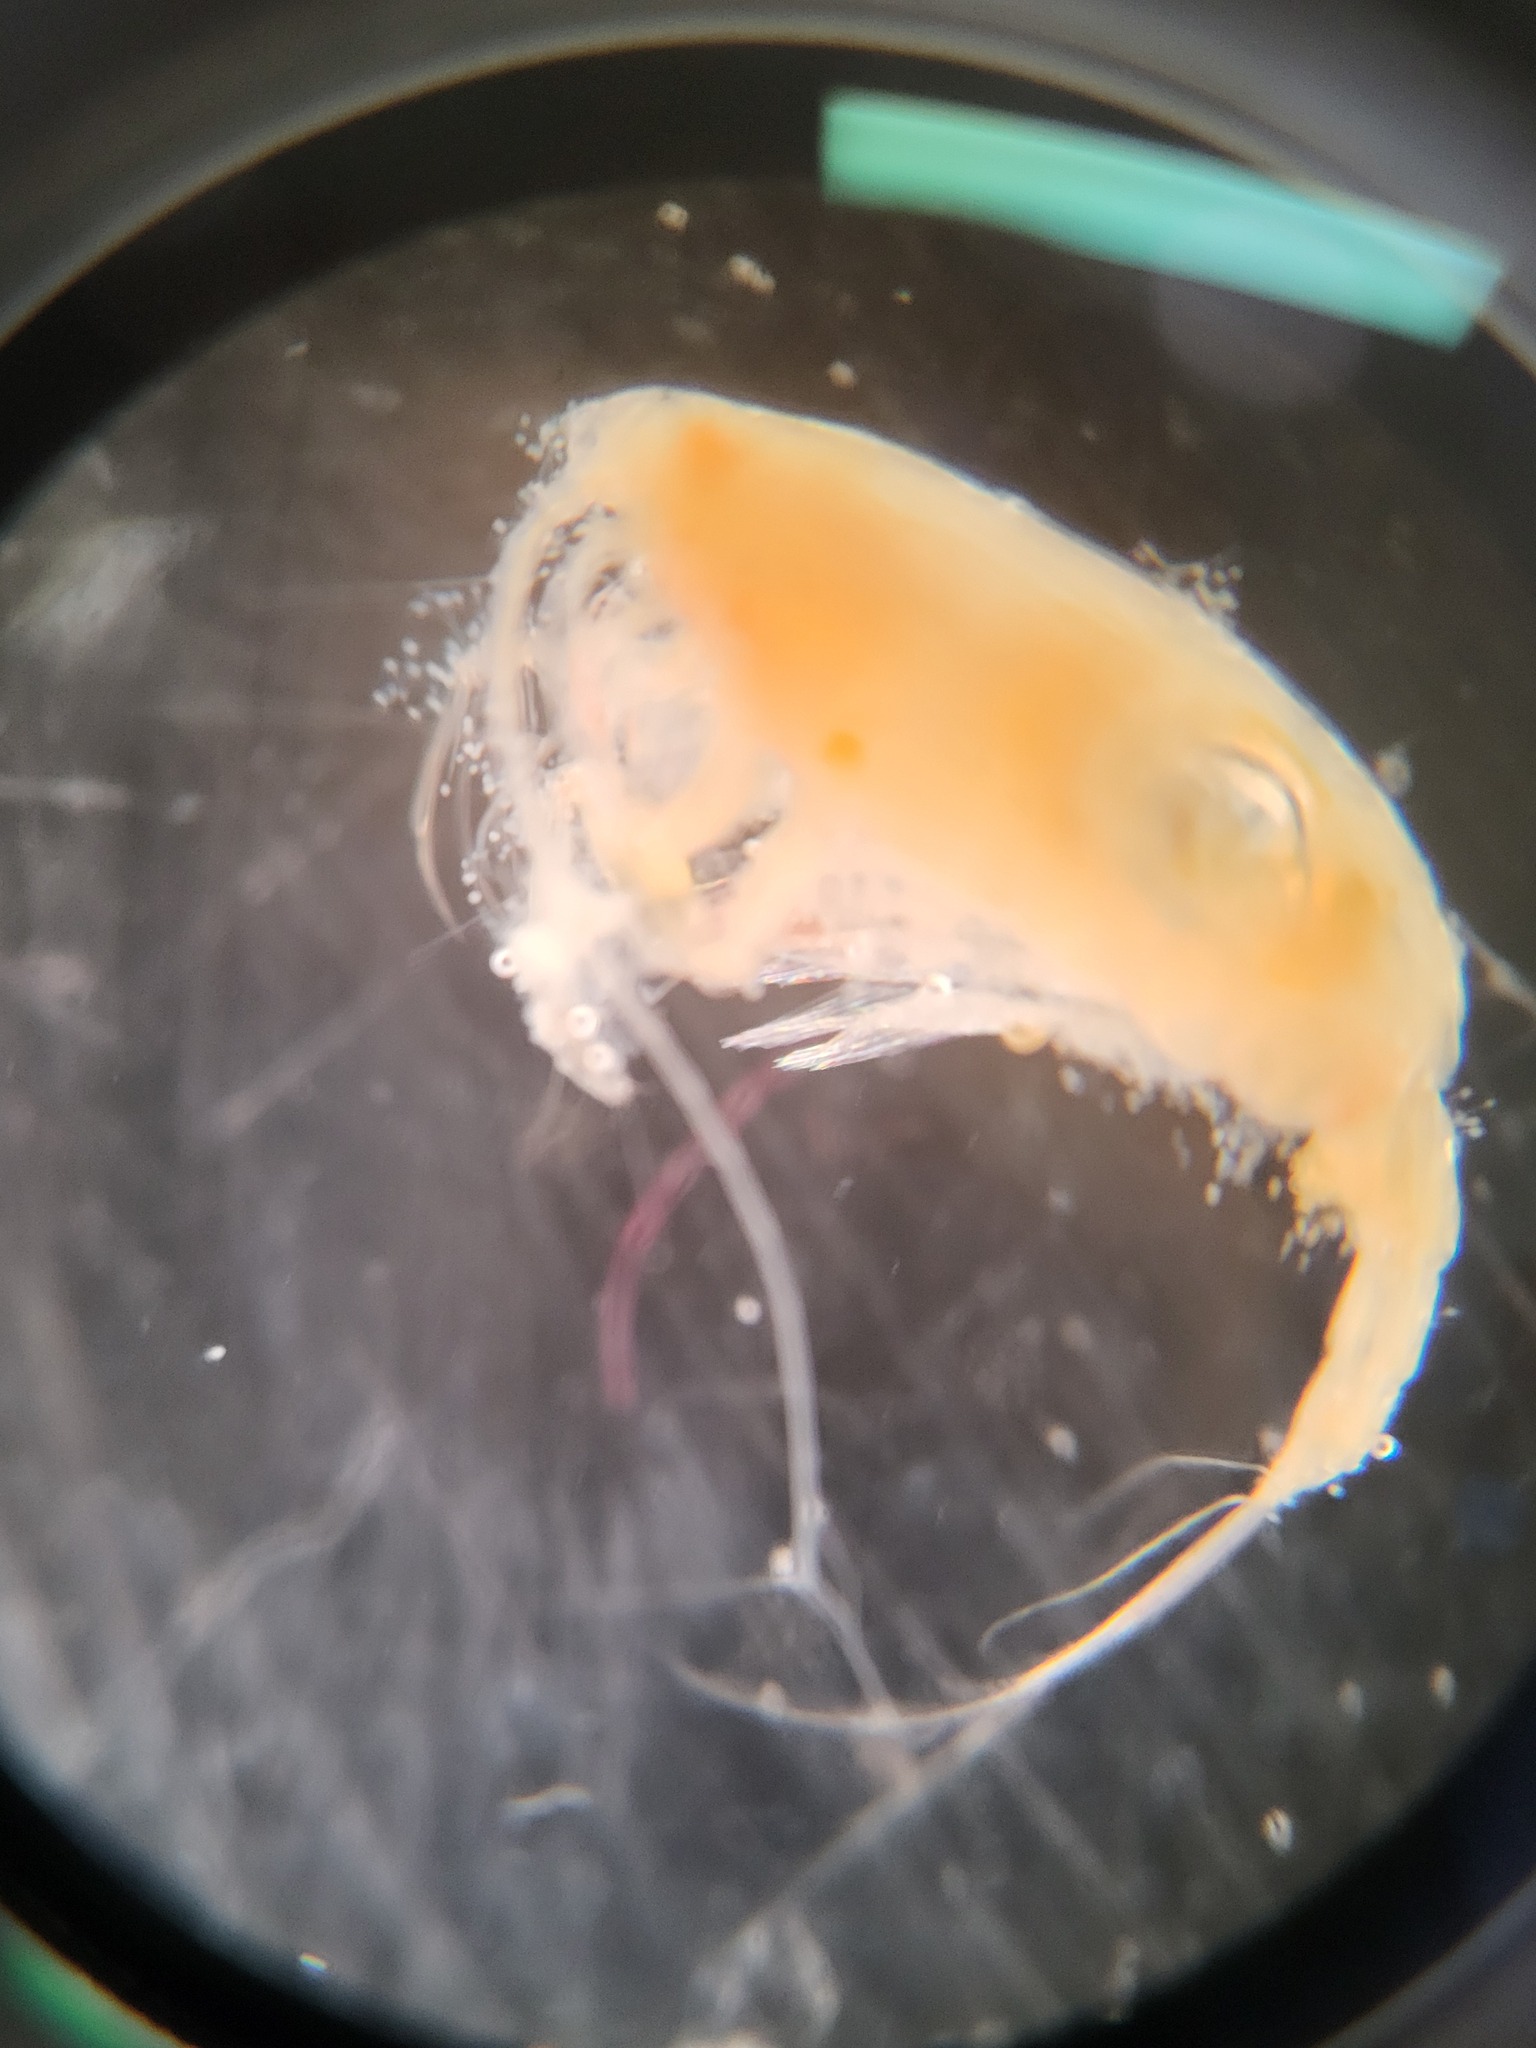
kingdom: Animalia
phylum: Arthropoda
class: Copepoda
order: Calanoida
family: Euchaetidae
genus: Paraeuchaeta
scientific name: Paraeuchaeta glacialis
